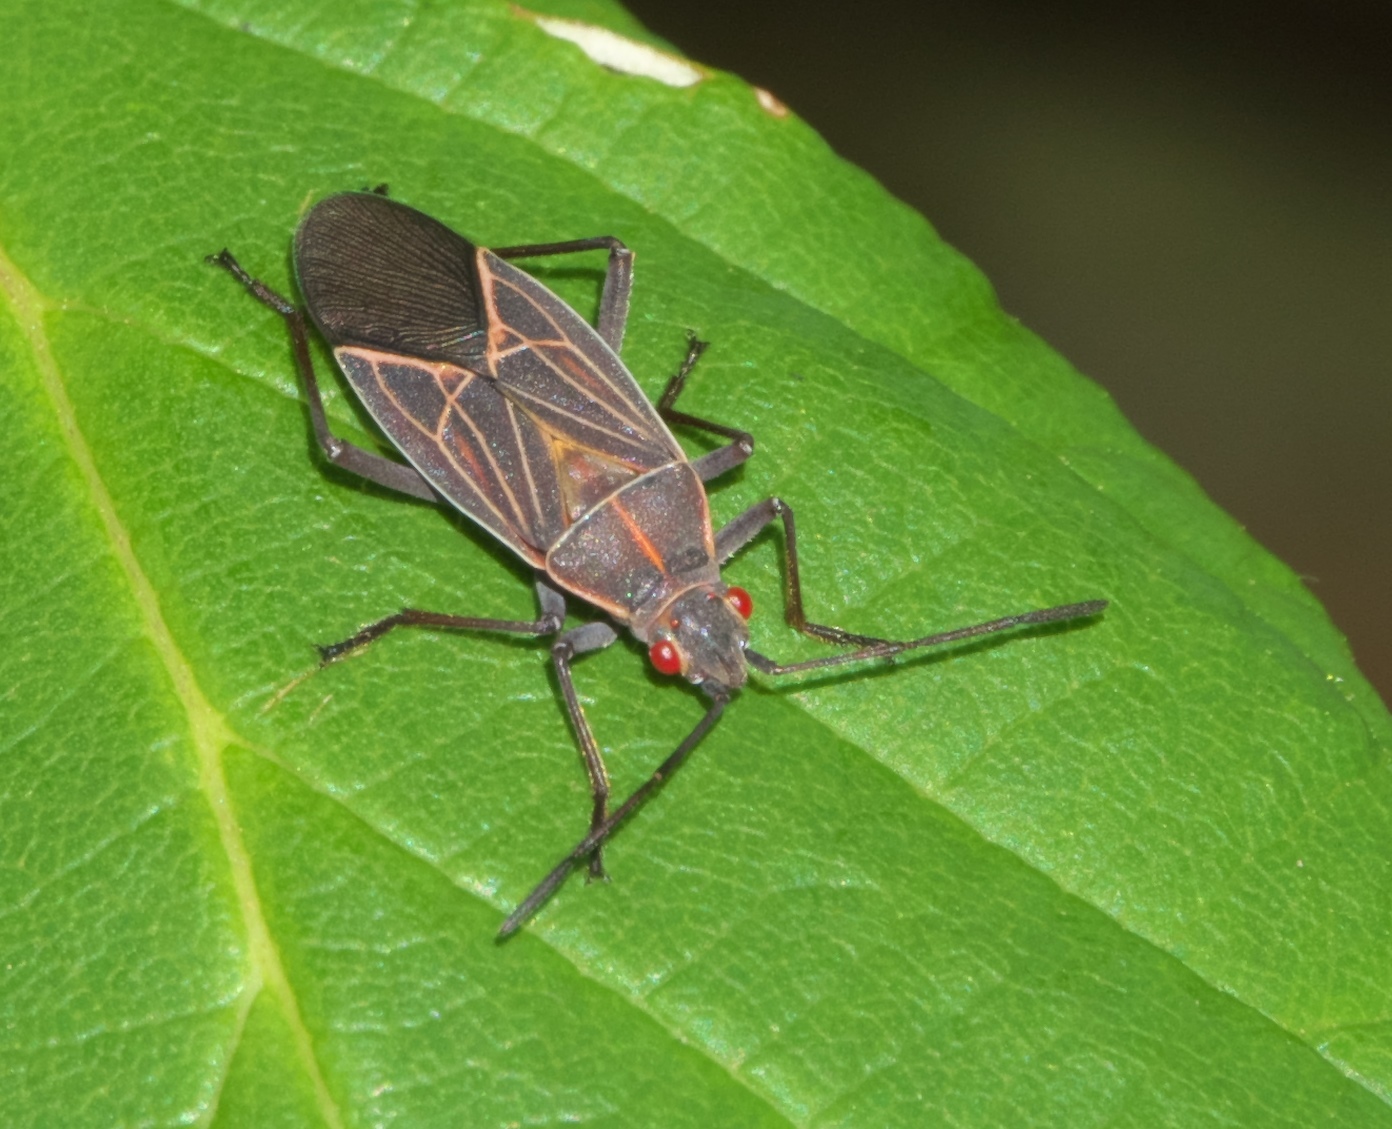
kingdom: Animalia
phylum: Arthropoda
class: Insecta
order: Hemiptera
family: Rhopalidae
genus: Boisea
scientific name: Boisea rubrolineata
